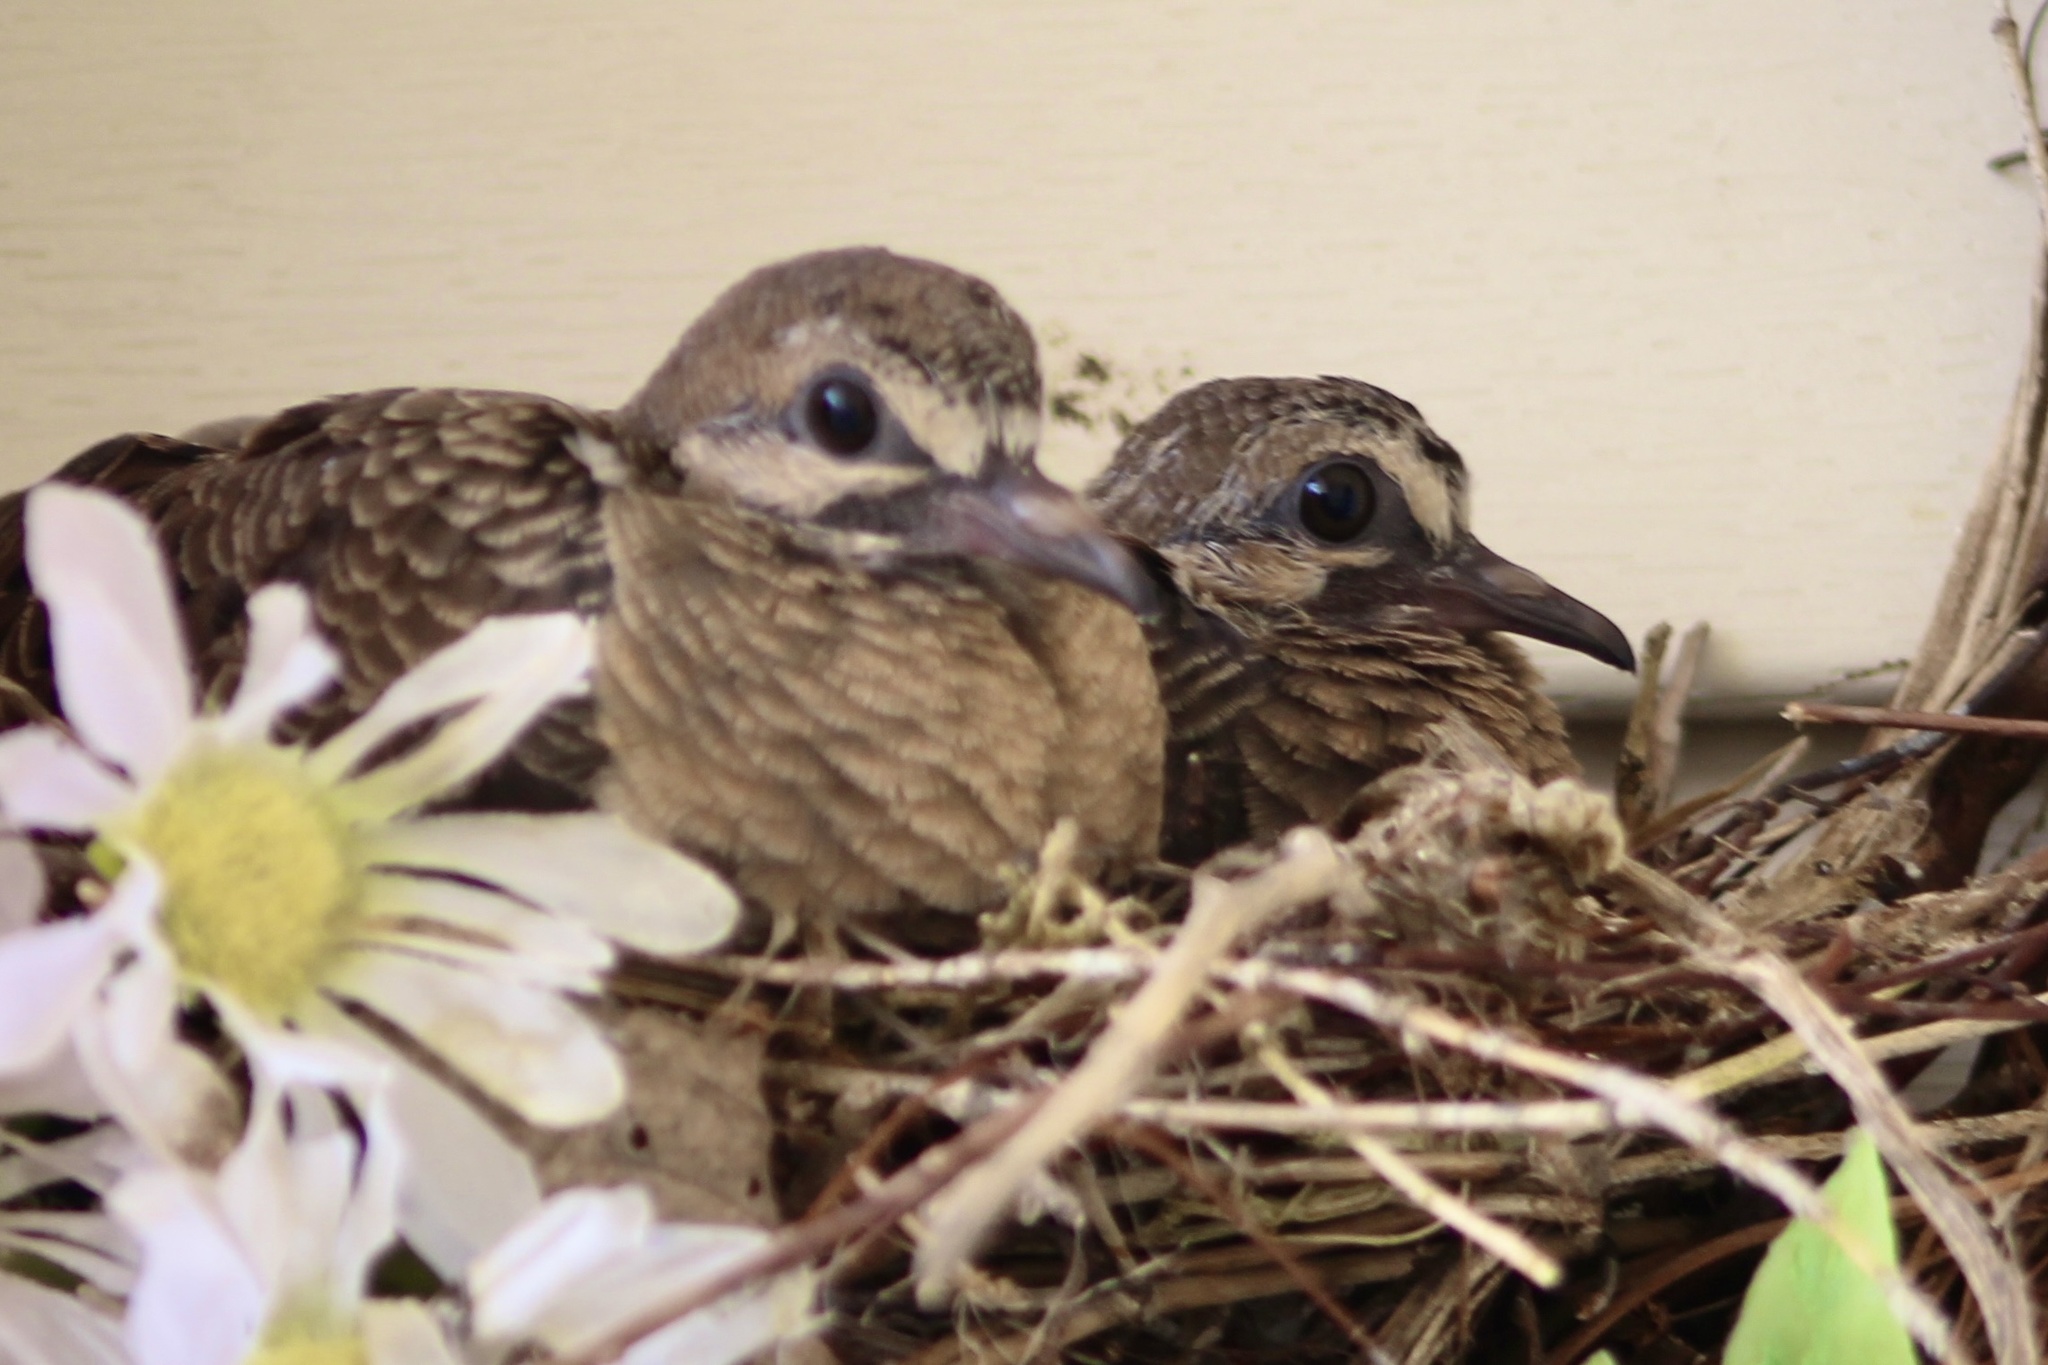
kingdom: Animalia
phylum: Chordata
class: Aves
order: Columbiformes
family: Columbidae
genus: Zenaida
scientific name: Zenaida macroura
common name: Mourning dove
